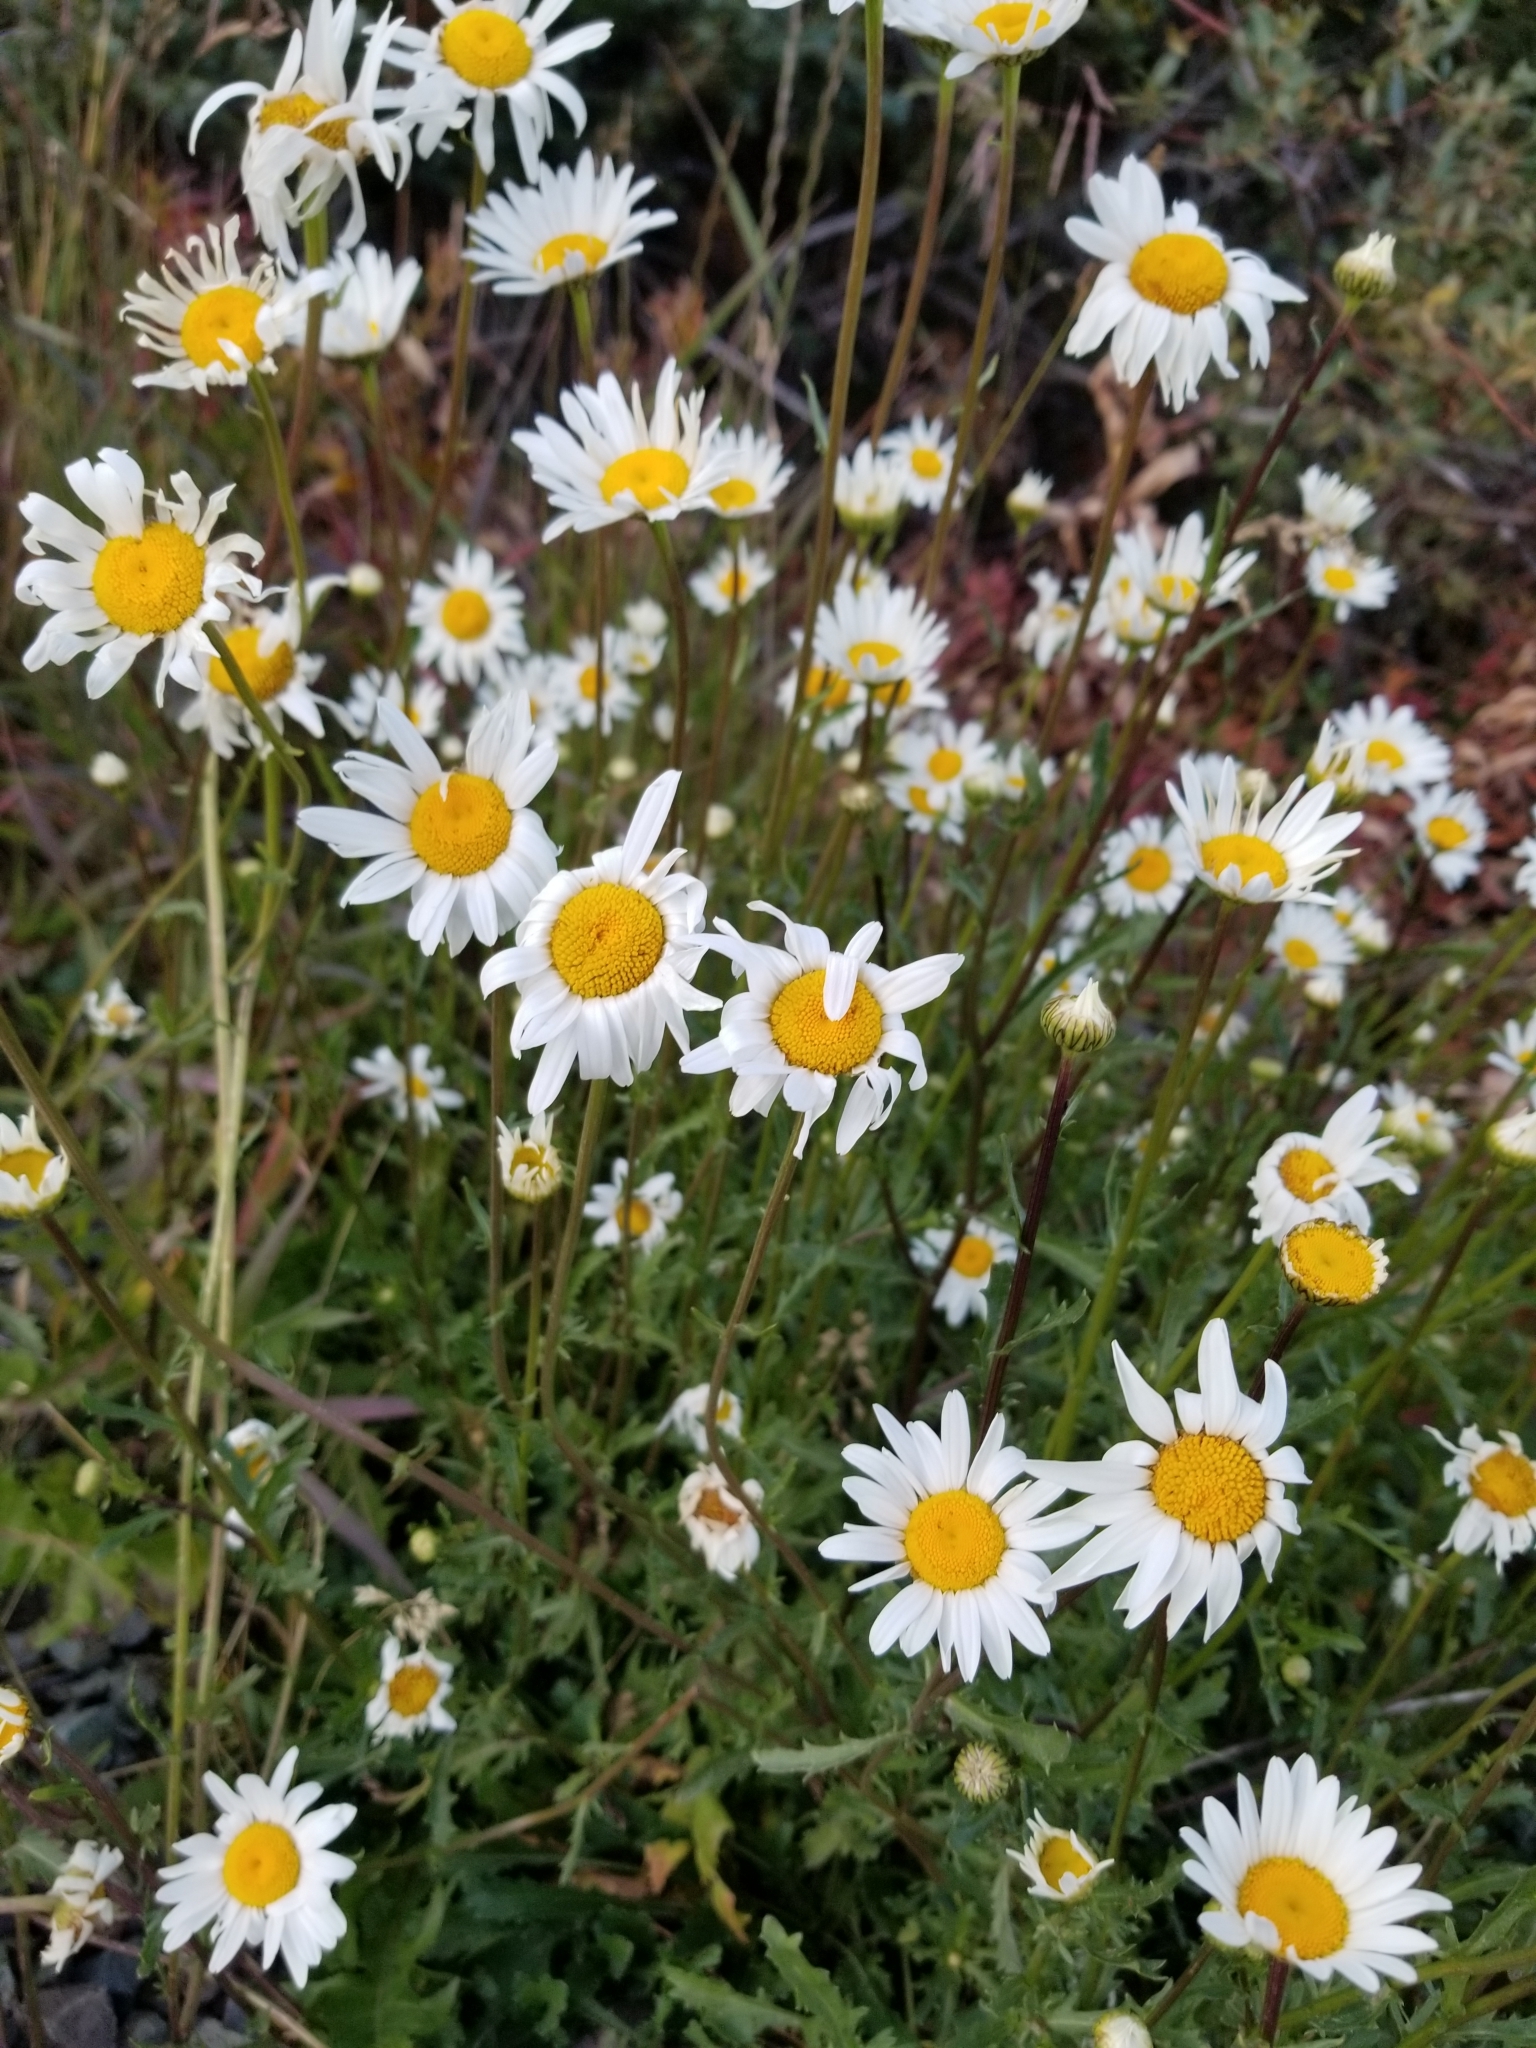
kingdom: Plantae
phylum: Tracheophyta
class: Magnoliopsida
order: Asterales
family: Asteraceae
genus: Leucanthemum
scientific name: Leucanthemum vulgare
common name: Oxeye daisy
